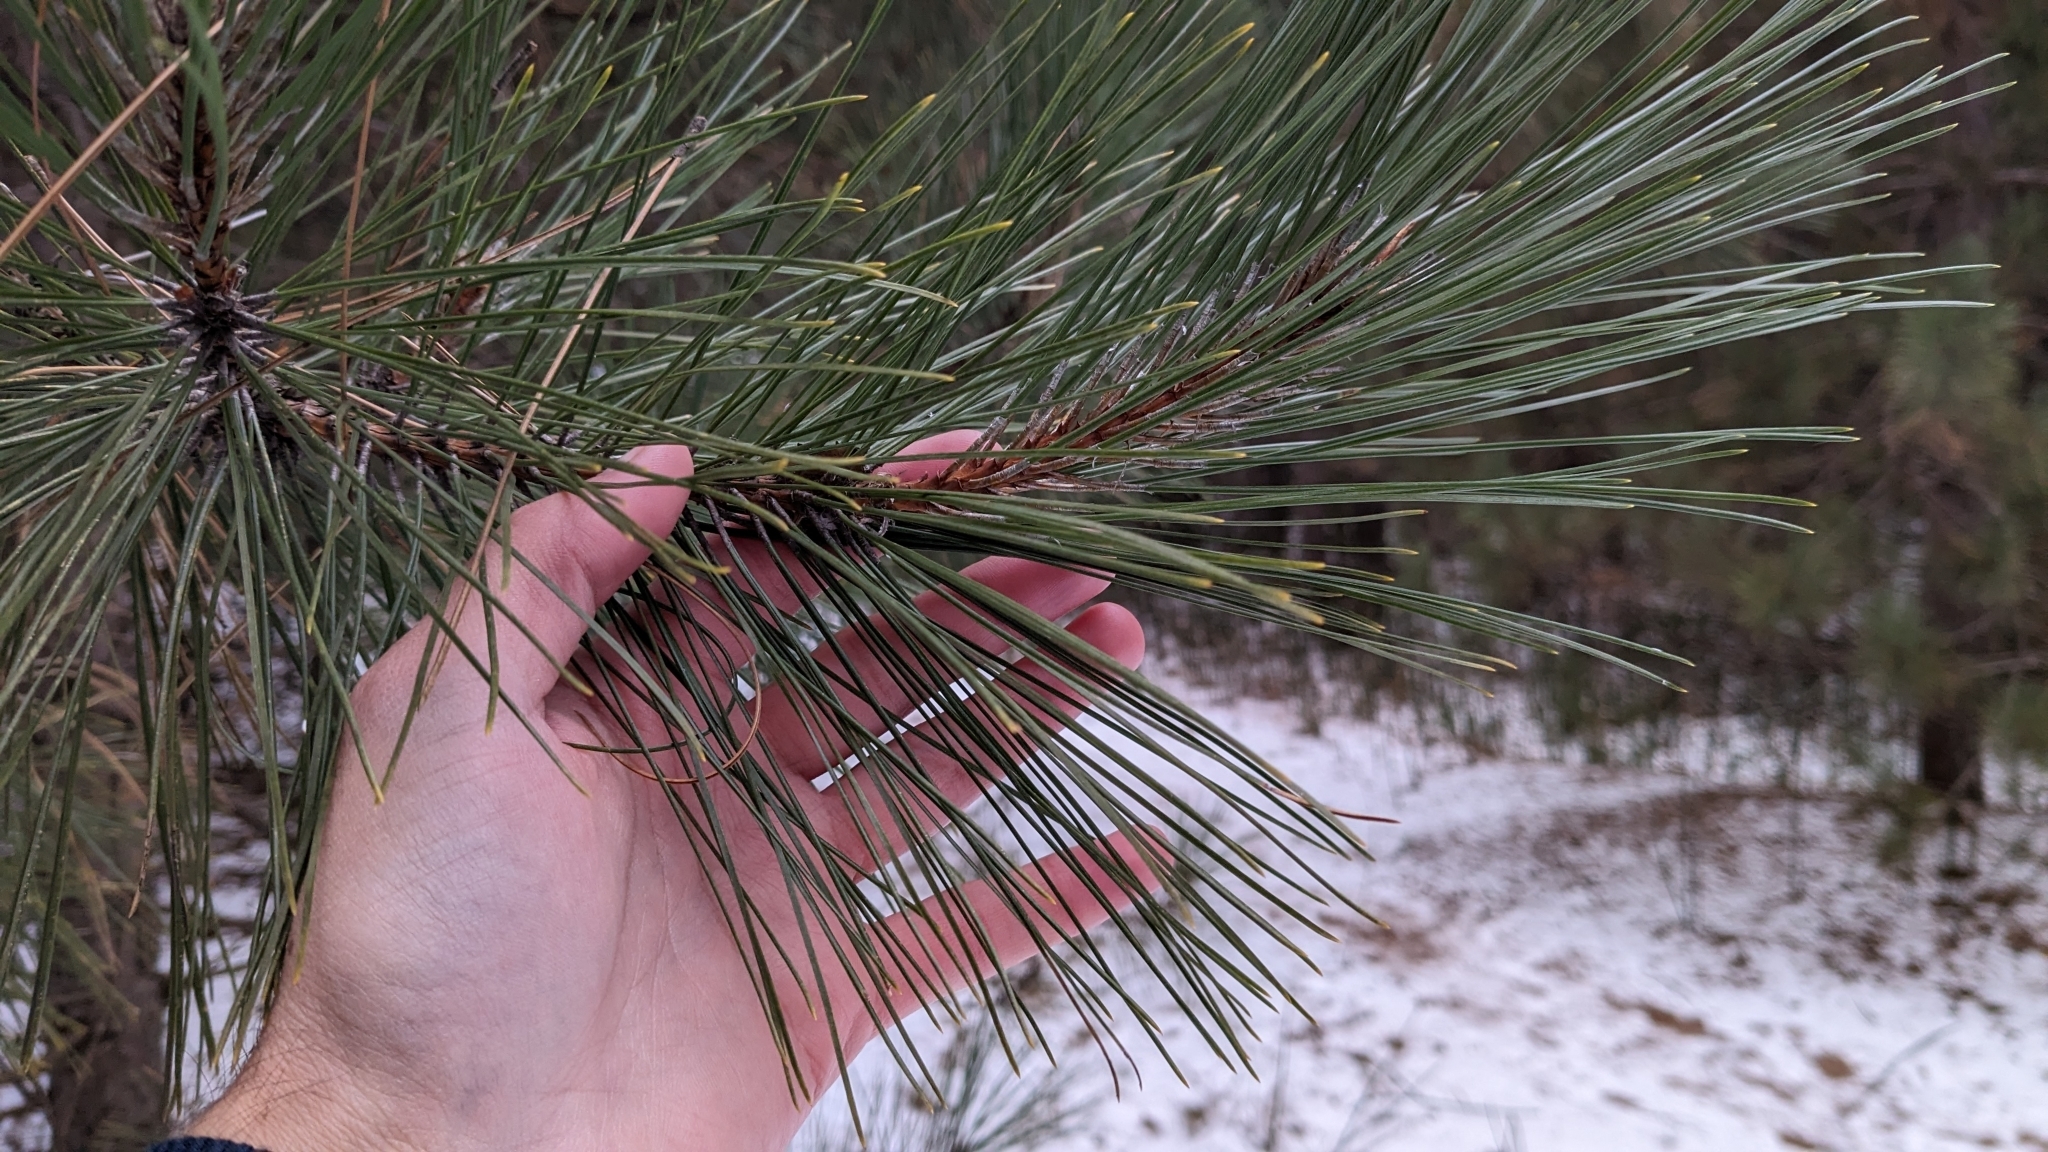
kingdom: Plantae
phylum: Tracheophyta
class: Pinopsida
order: Pinales
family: Pinaceae
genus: Pinus
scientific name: Pinus resinosa
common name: Norway pine
